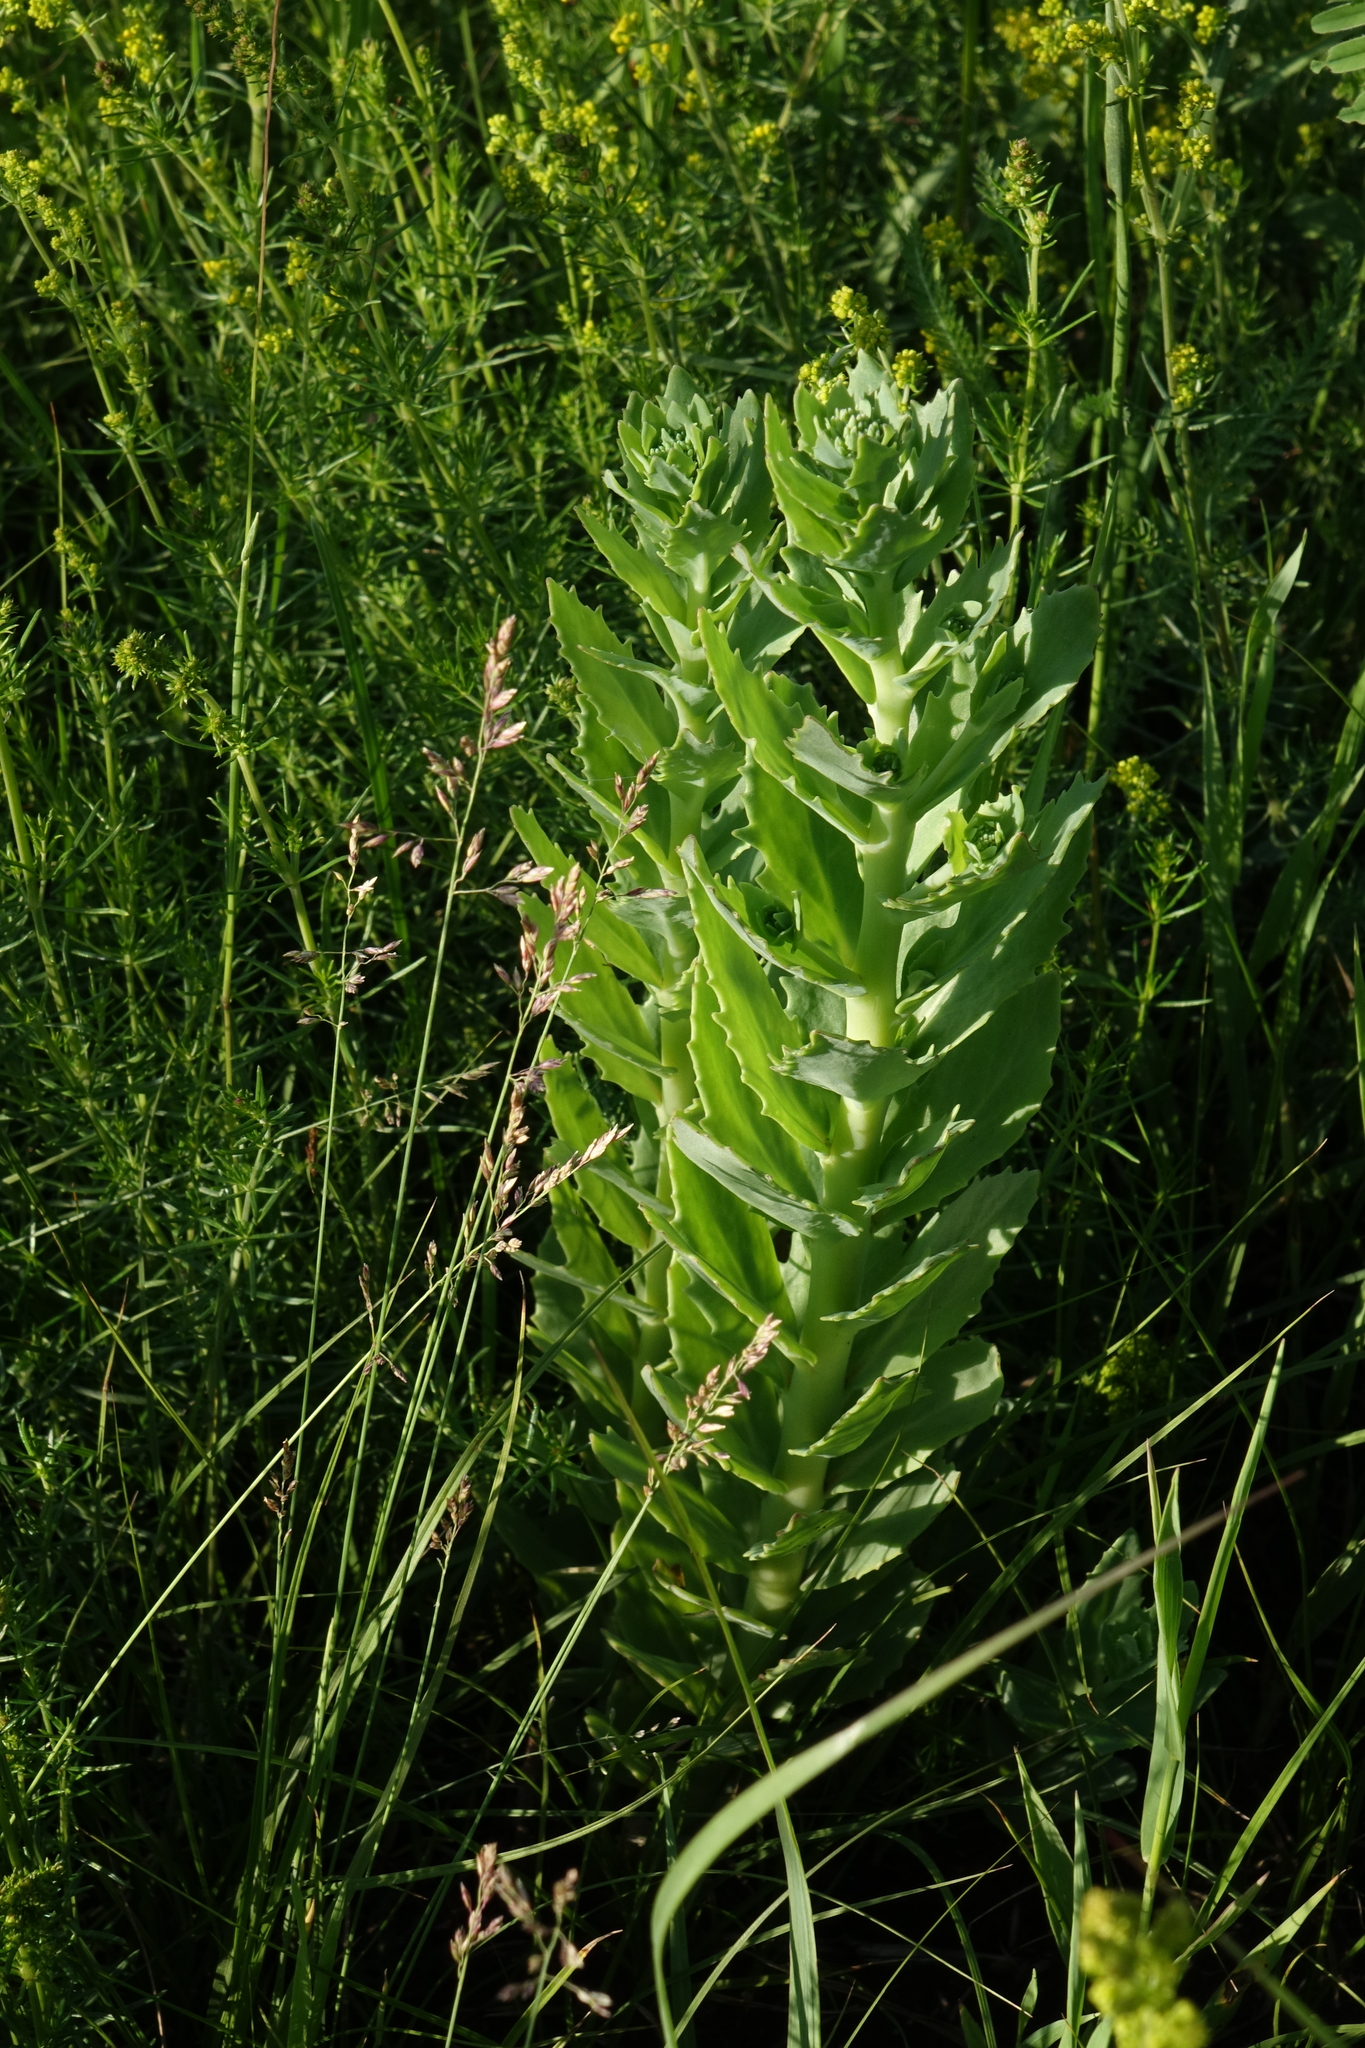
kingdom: Plantae
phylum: Tracheophyta
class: Magnoliopsida
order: Saxifragales
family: Crassulaceae
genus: Hylotelephium
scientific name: Hylotelephium telephium
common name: Live-forever
